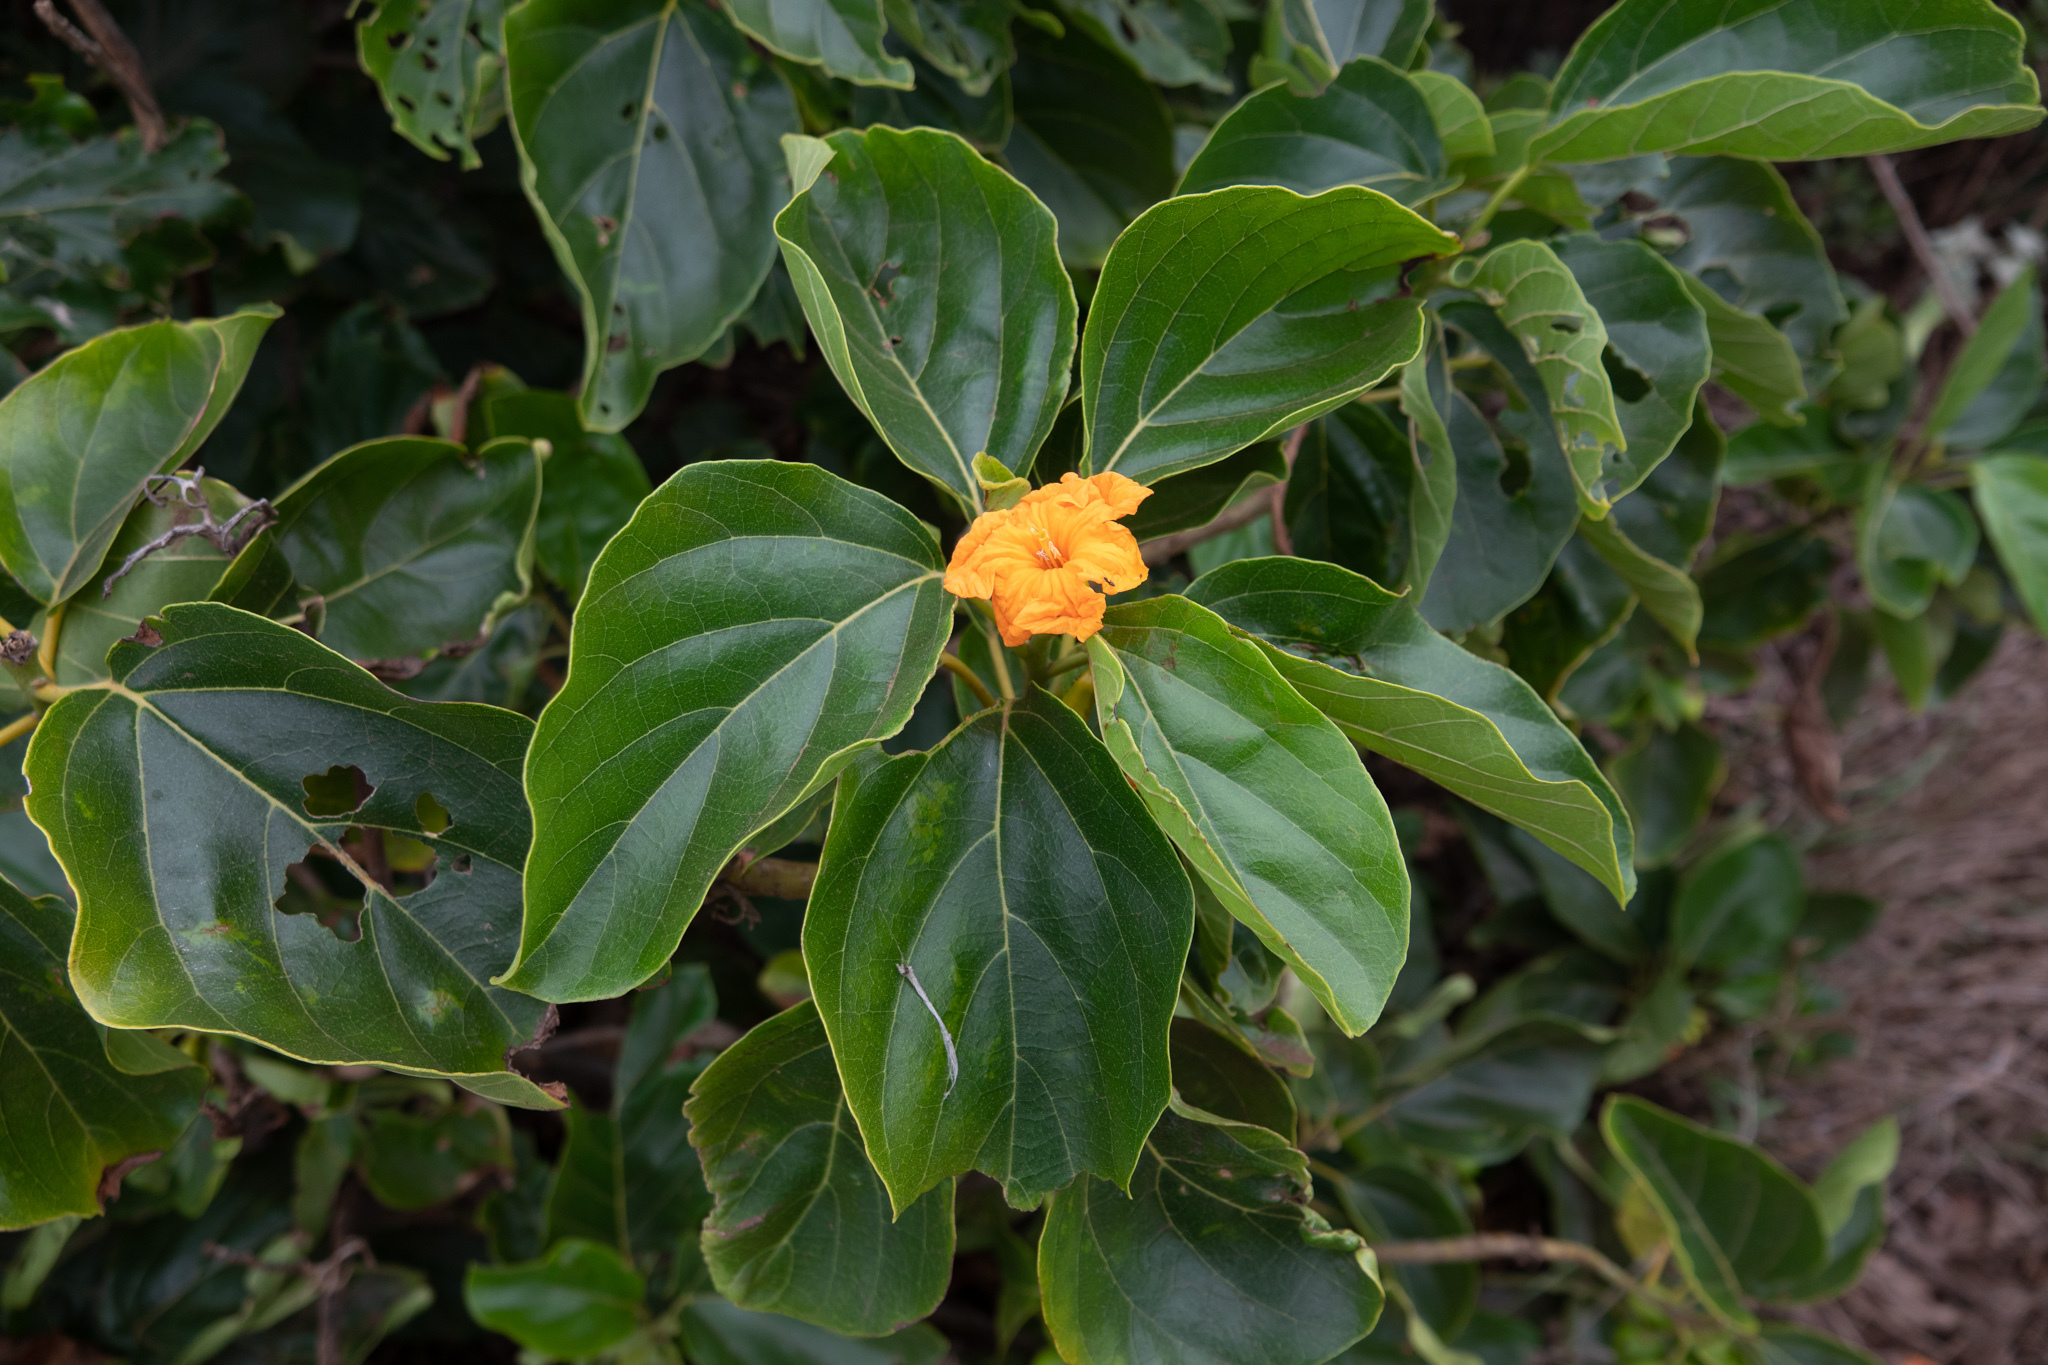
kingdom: Plantae
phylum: Tracheophyta
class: Magnoliopsida
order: Boraginales
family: Cordiaceae
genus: Cordia
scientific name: Cordia subcordata
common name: Mareer
